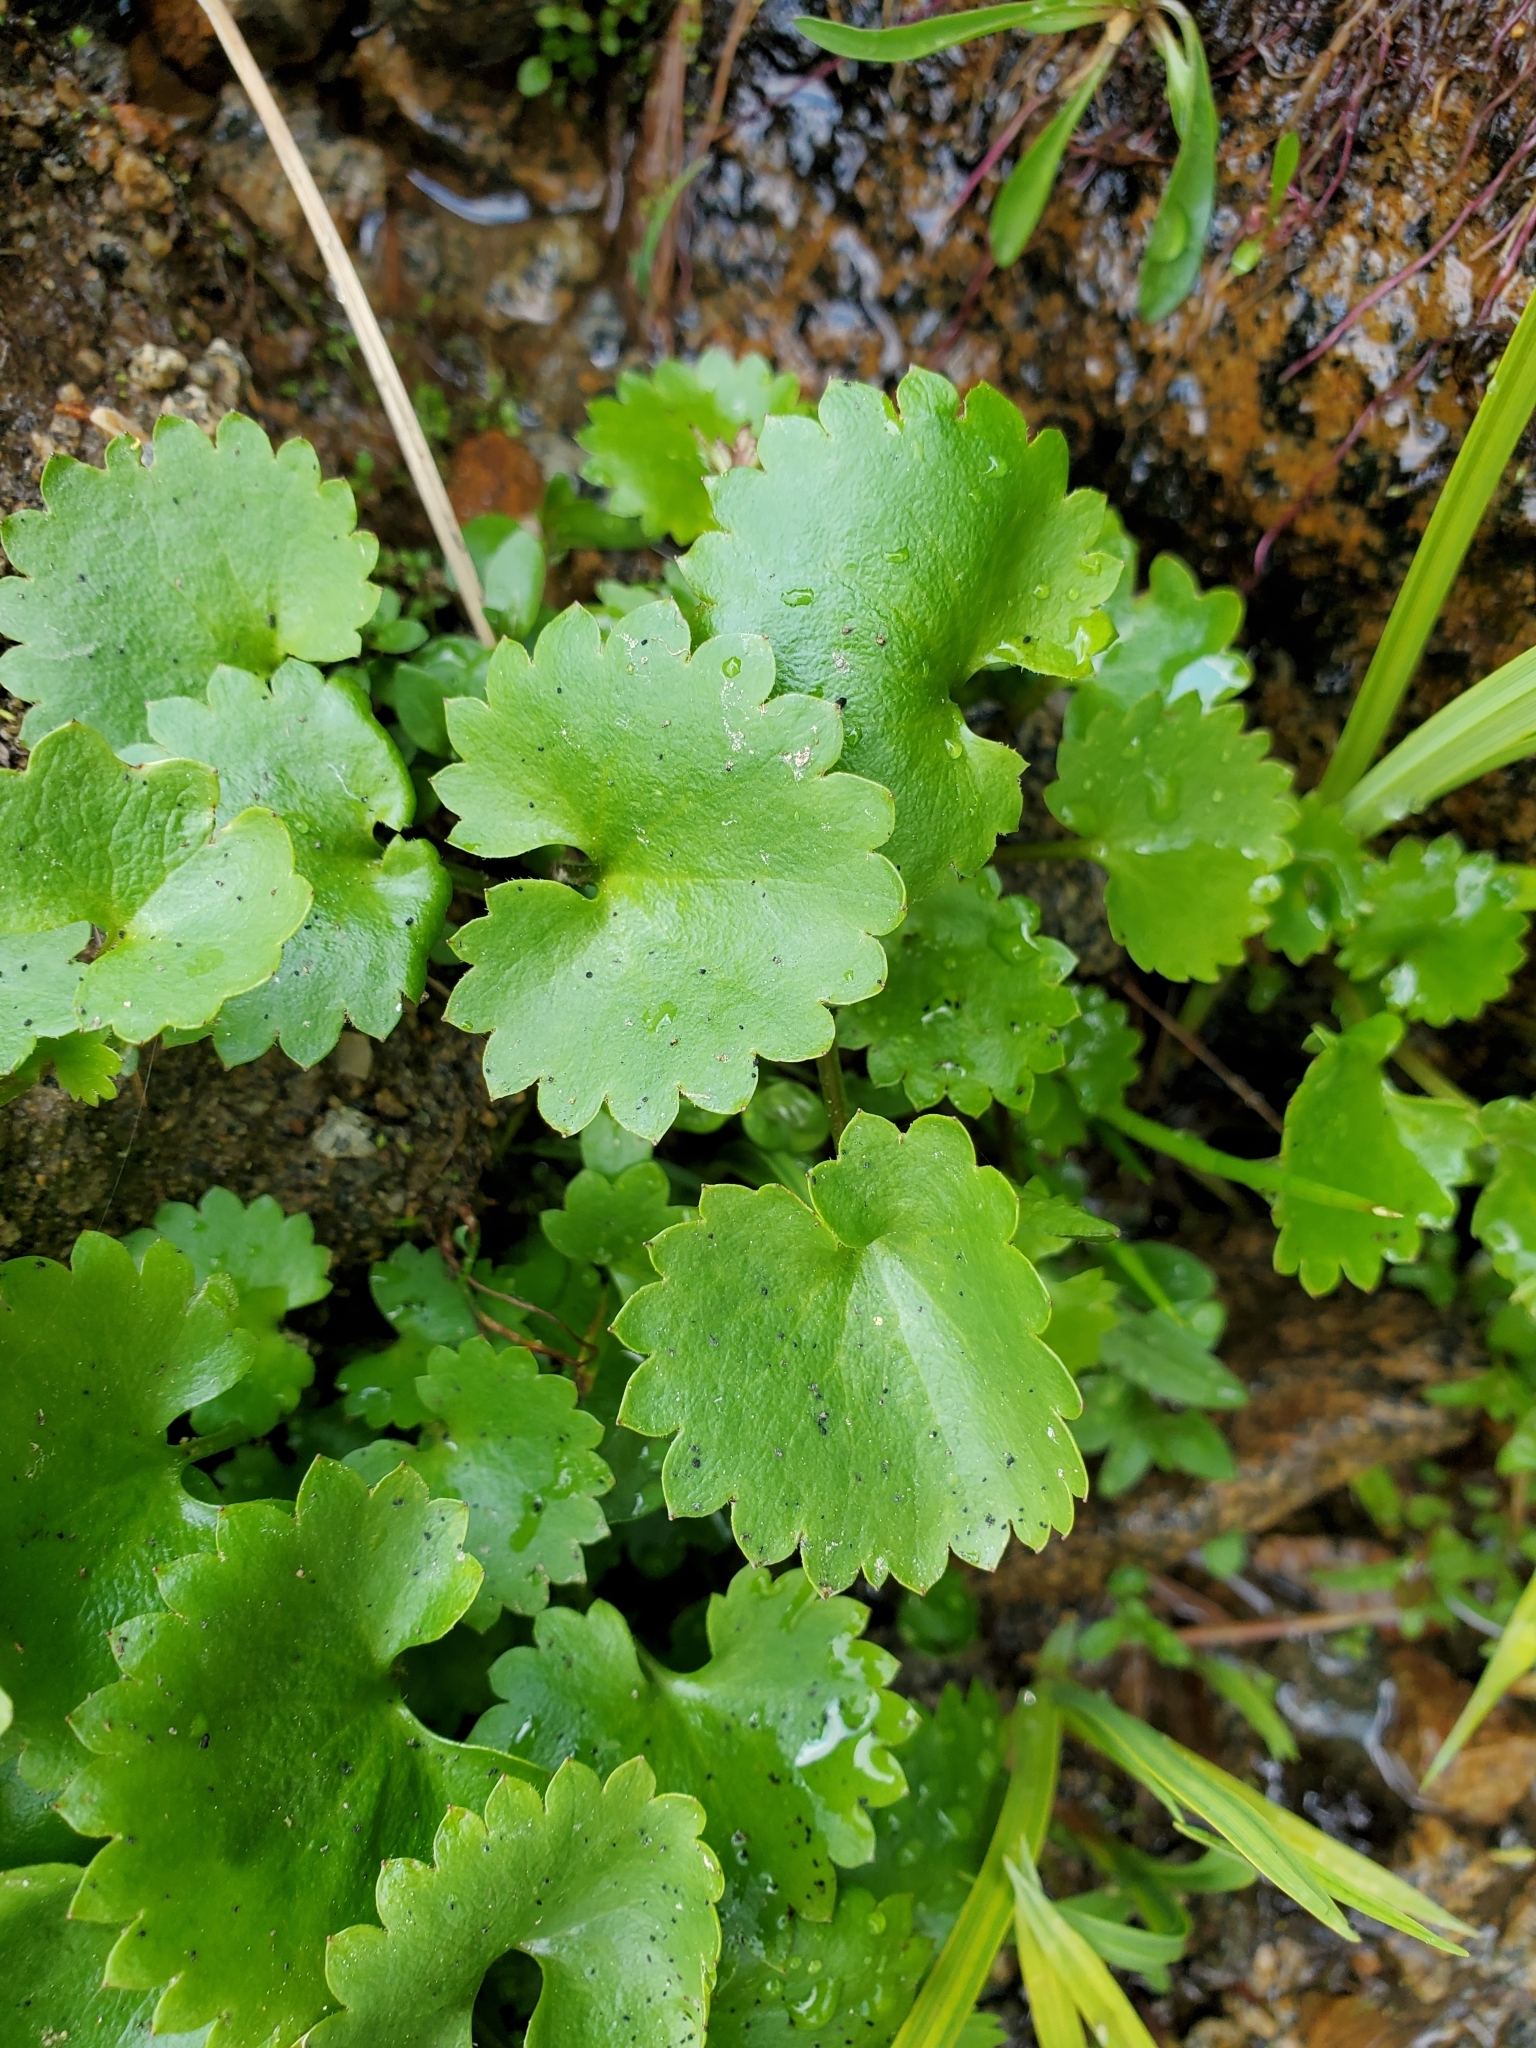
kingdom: Plantae
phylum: Tracheophyta
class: Magnoliopsida
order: Saxifragales
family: Saxifragaceae
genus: Micranthes
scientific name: Micranthes odontoloma
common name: Brook saxifrage
